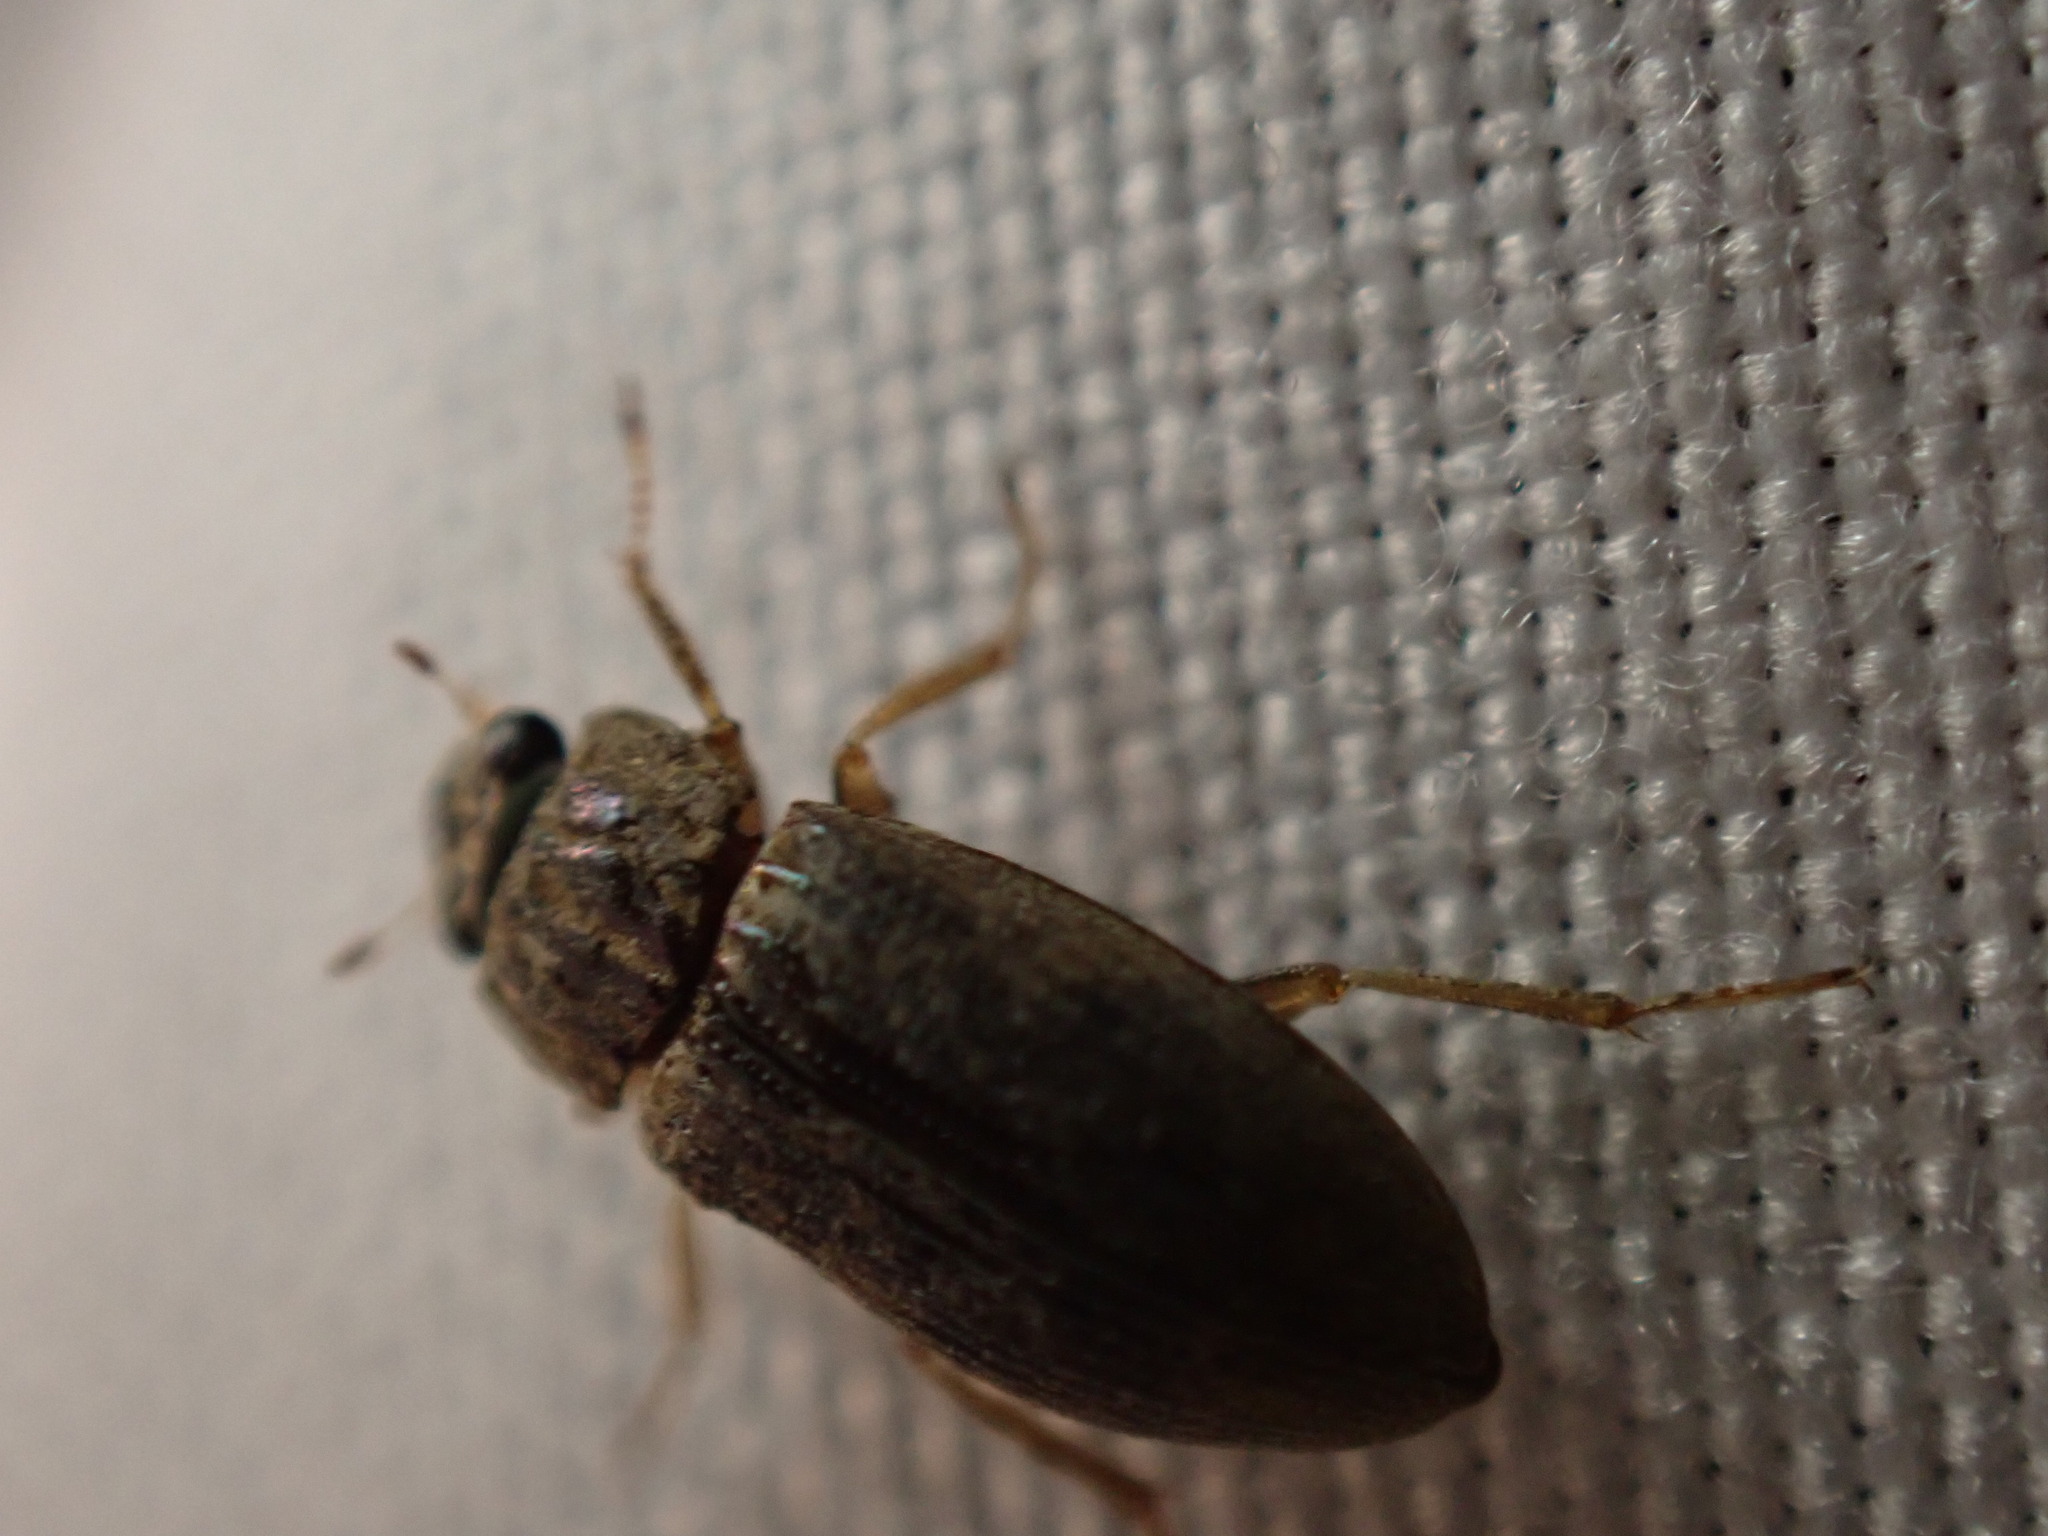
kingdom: Animalia
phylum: Arthropoda
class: Insecta
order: Coleoptera
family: Helophoridae
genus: Helophorus
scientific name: Helophorus
